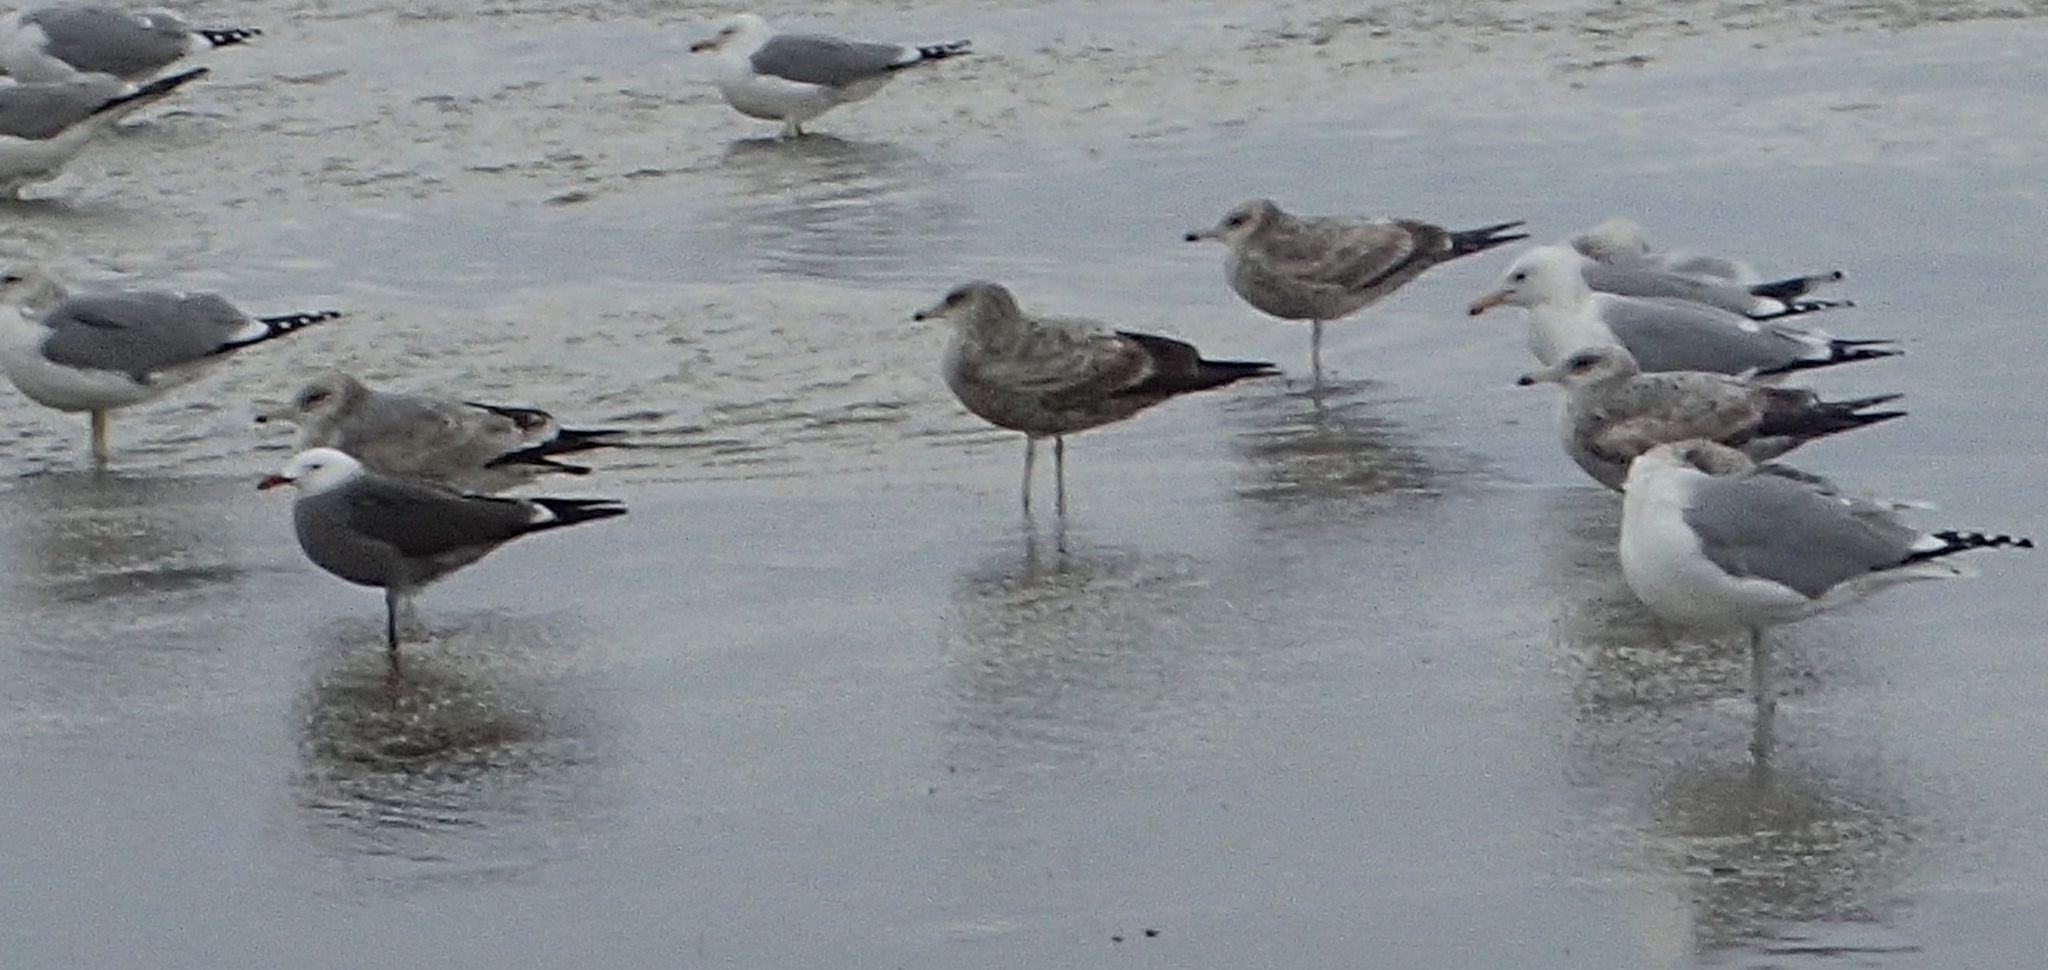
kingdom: Animalia
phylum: Chordata
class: Aves
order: Charadriiformes
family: Laridae
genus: Larus
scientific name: Larus heermanni
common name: Heermann's gull
